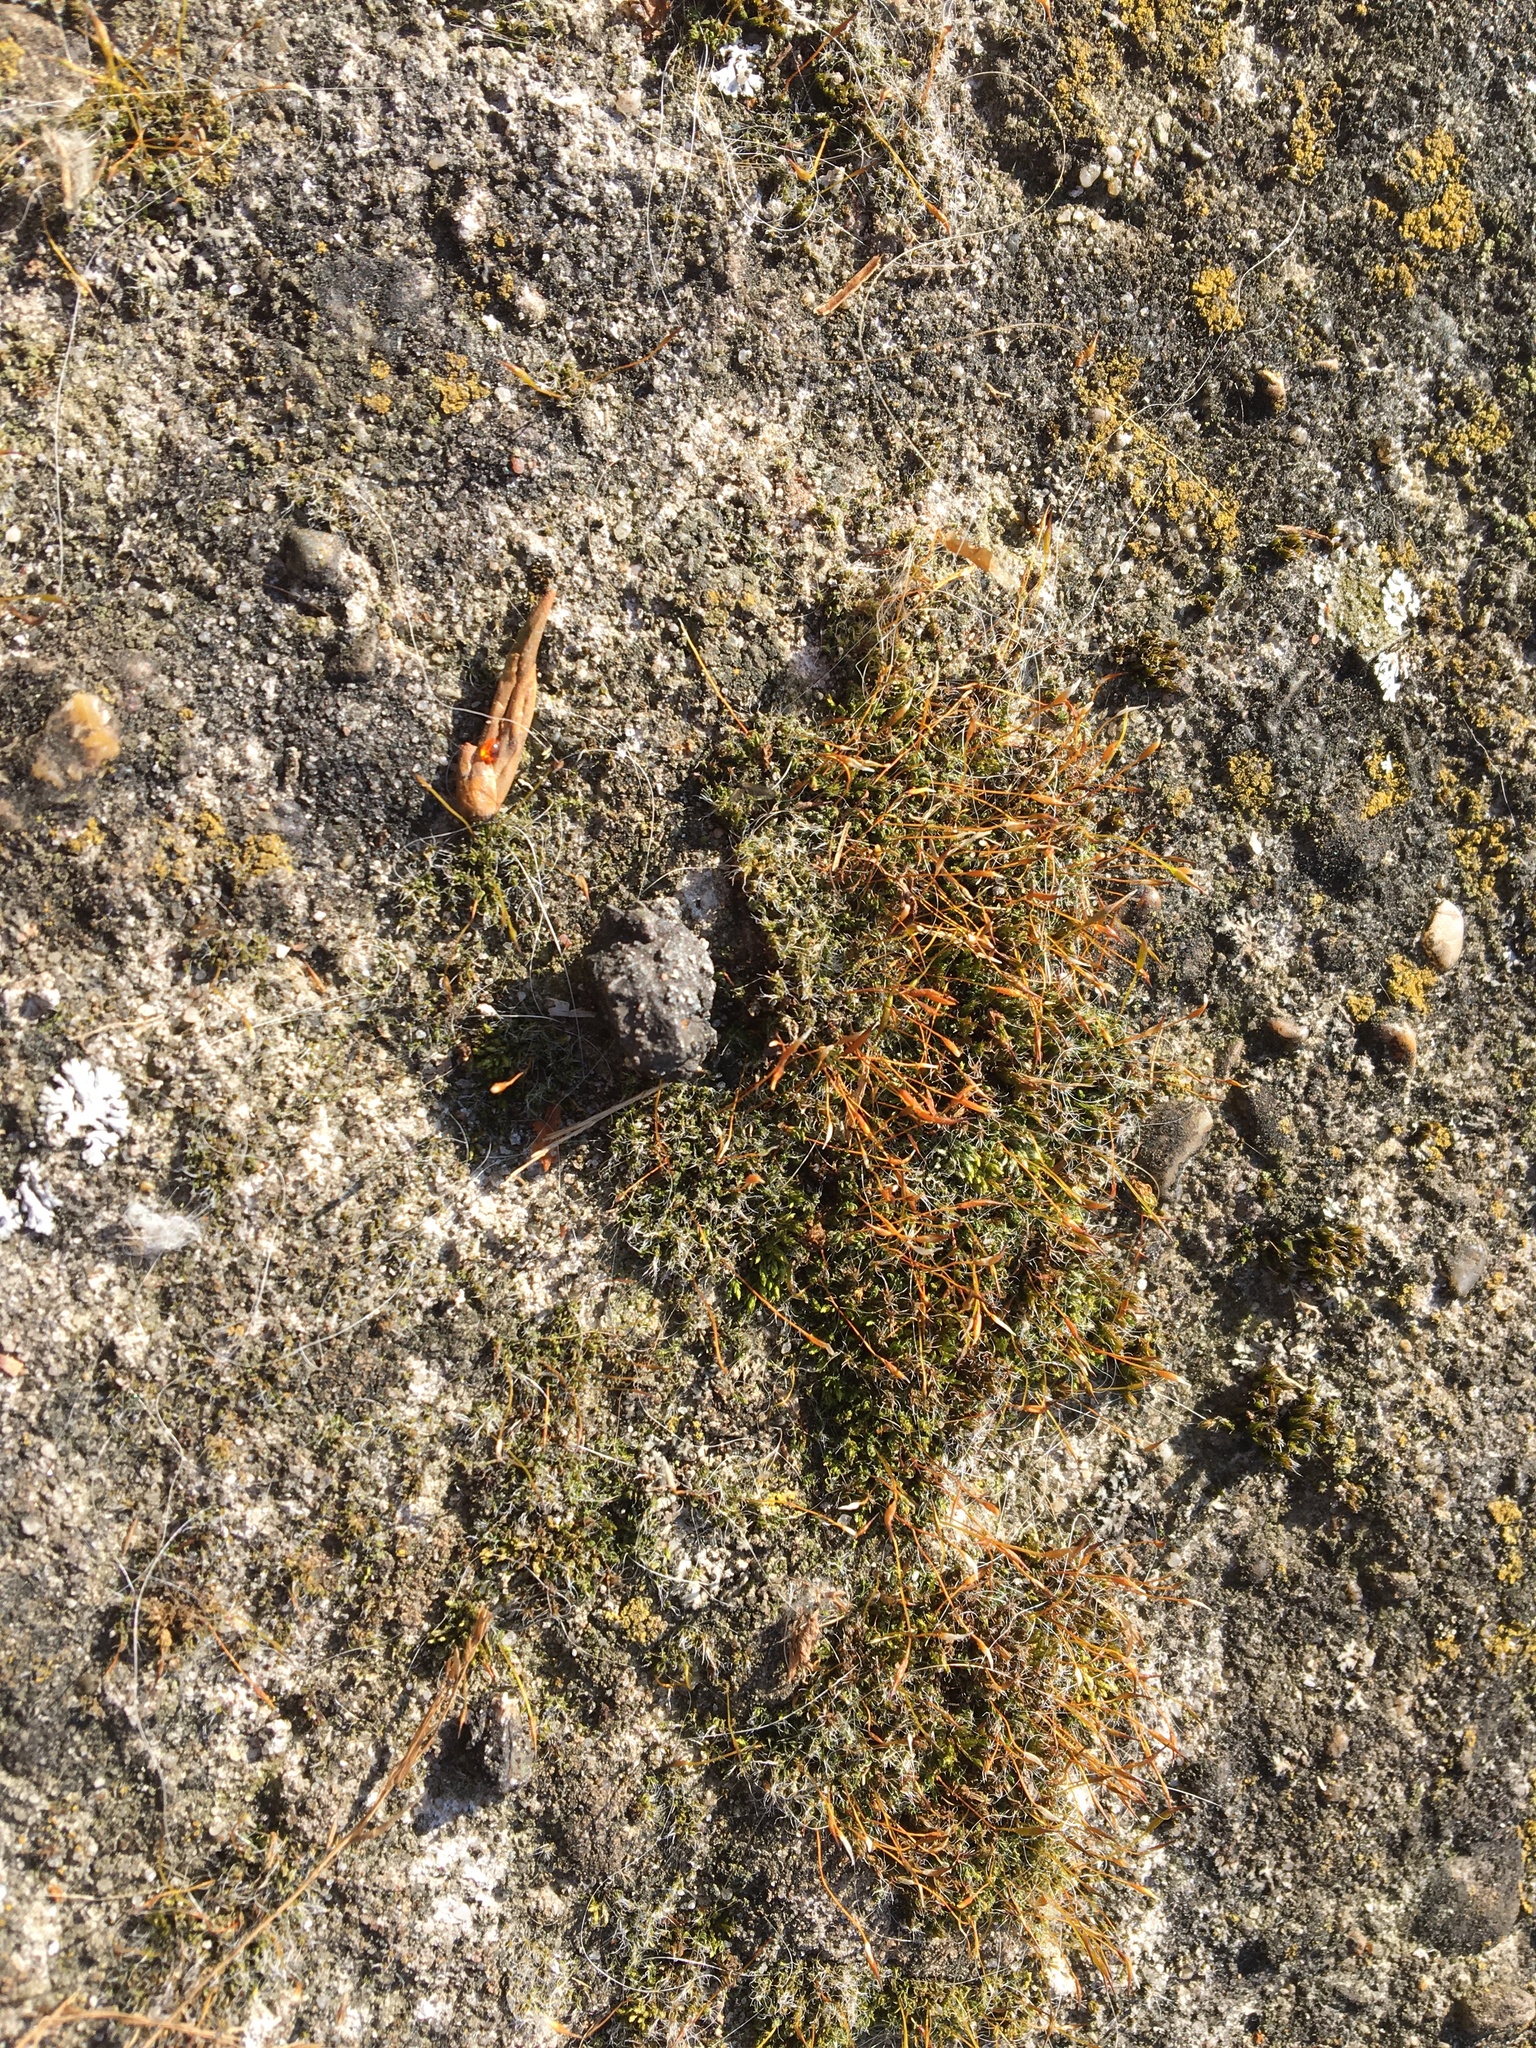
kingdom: Plantae
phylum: Bryophyta
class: Bryopsida
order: Pottiales
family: Pottiaceae
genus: Tortula
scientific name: Tortula muralis
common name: Wall screw-moss
